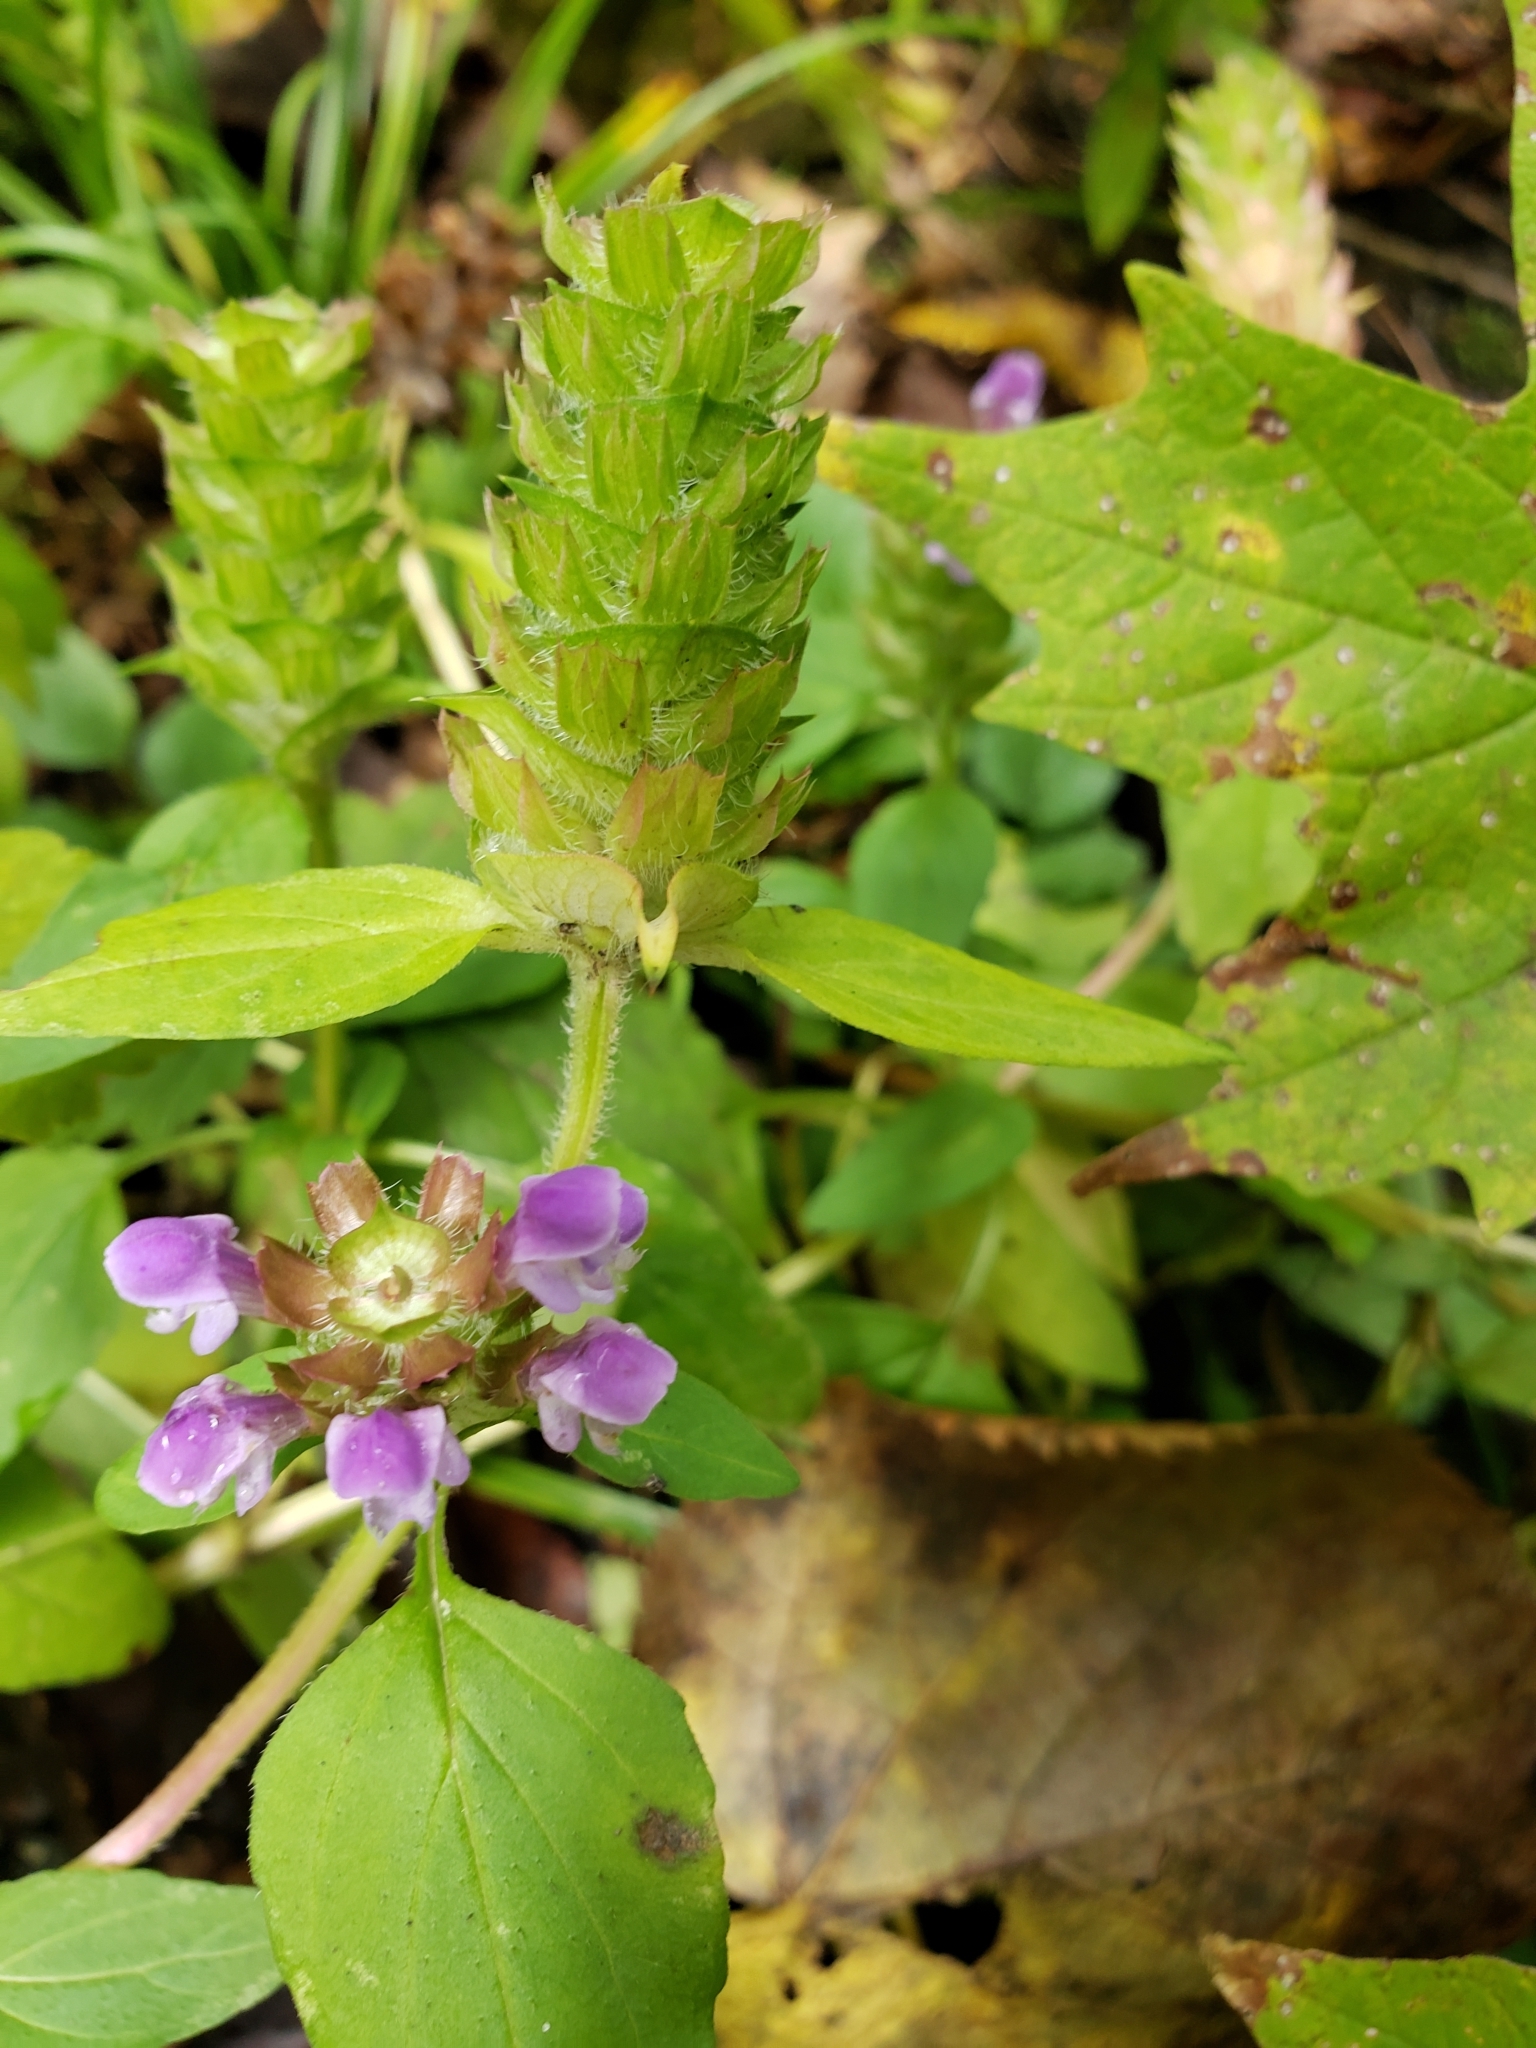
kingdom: Plantae
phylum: Tracheophyta
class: Magnoliopsida
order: Lamiales
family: Lamiaceae
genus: Prunella
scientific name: Prunella vulgaris
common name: Heal-all
